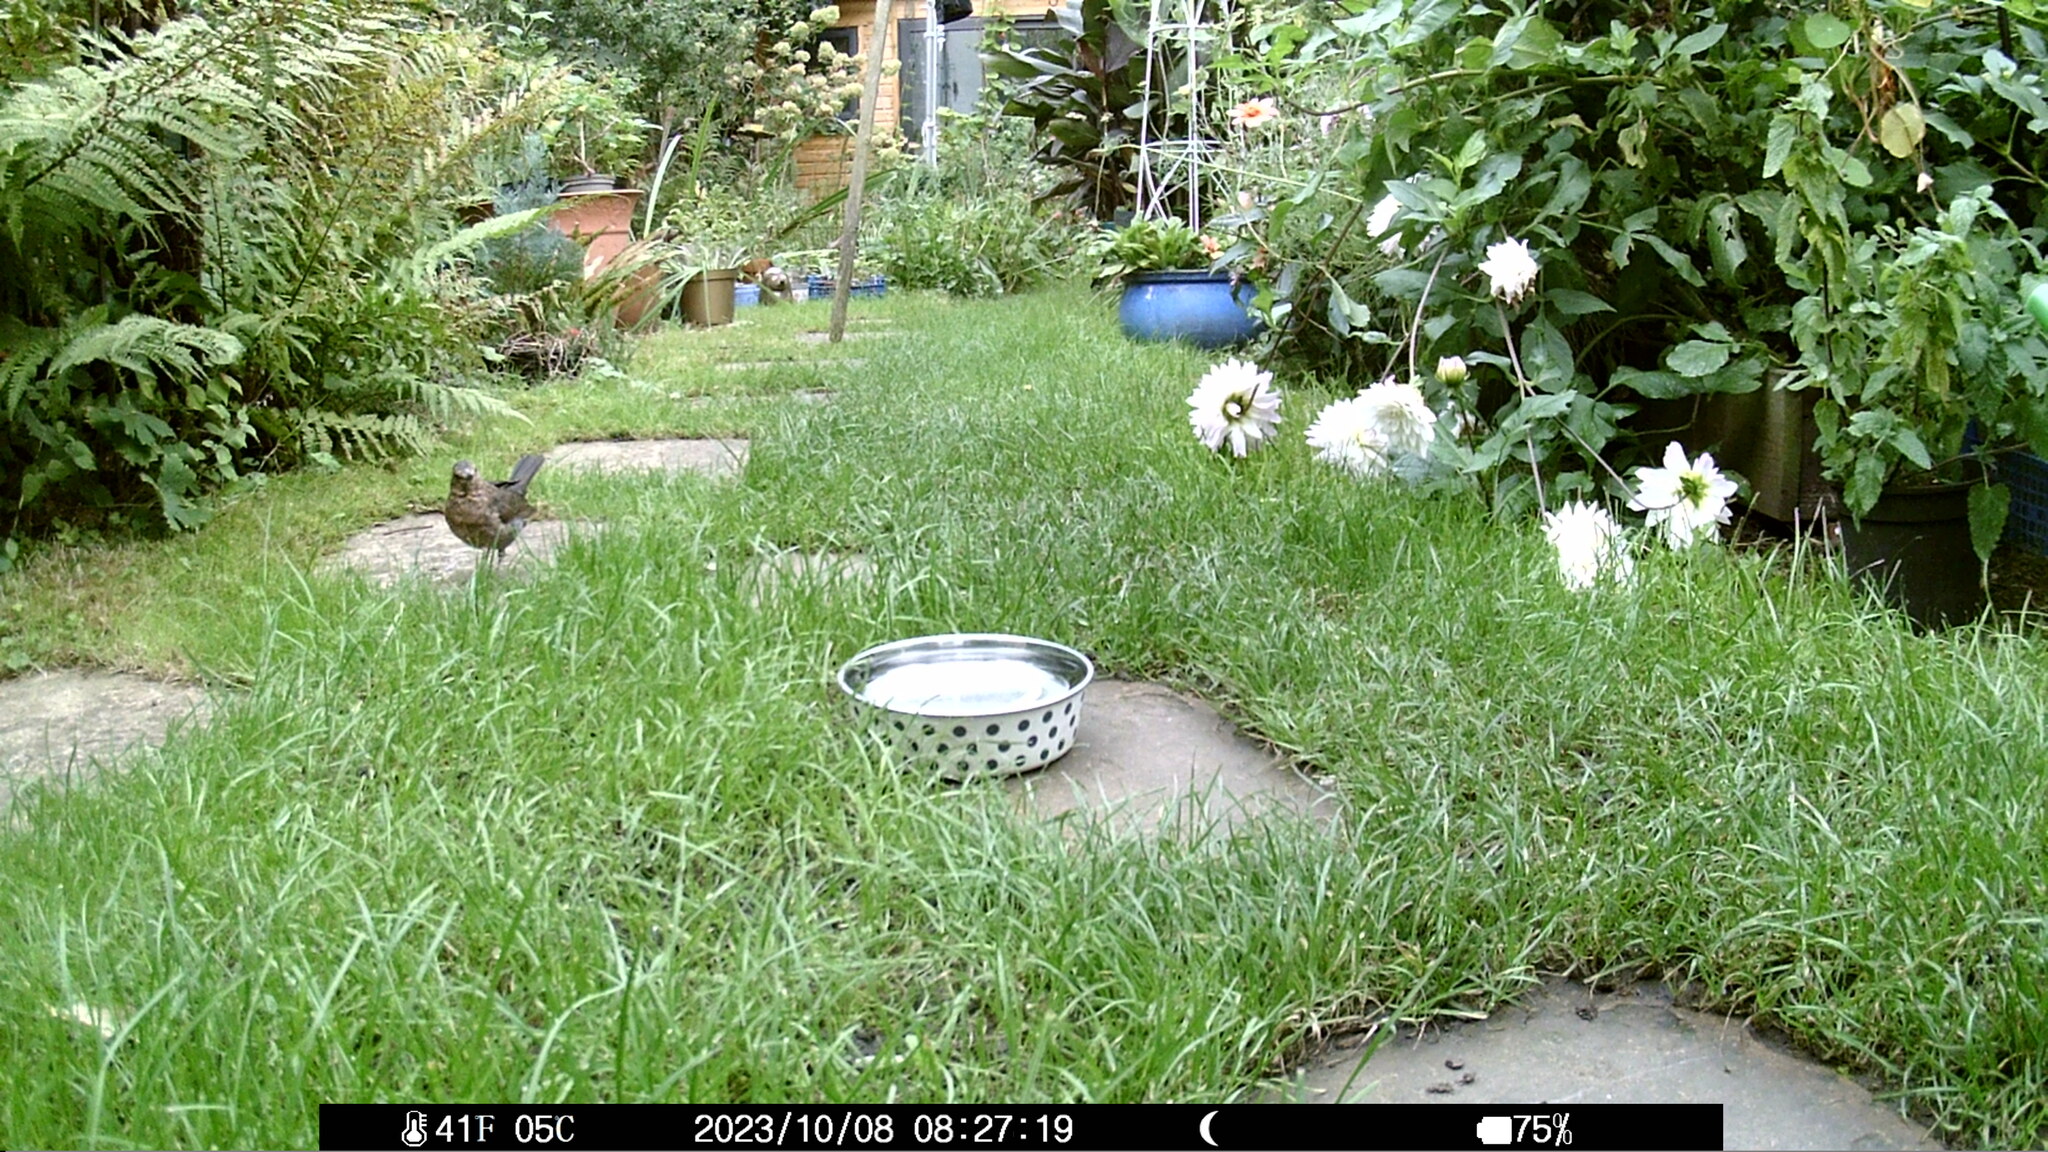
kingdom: Animalia
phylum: Chordata
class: Aves
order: Passeriformes
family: Turdidae
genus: Turdus
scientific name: Turdus merula
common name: Common blackbird
